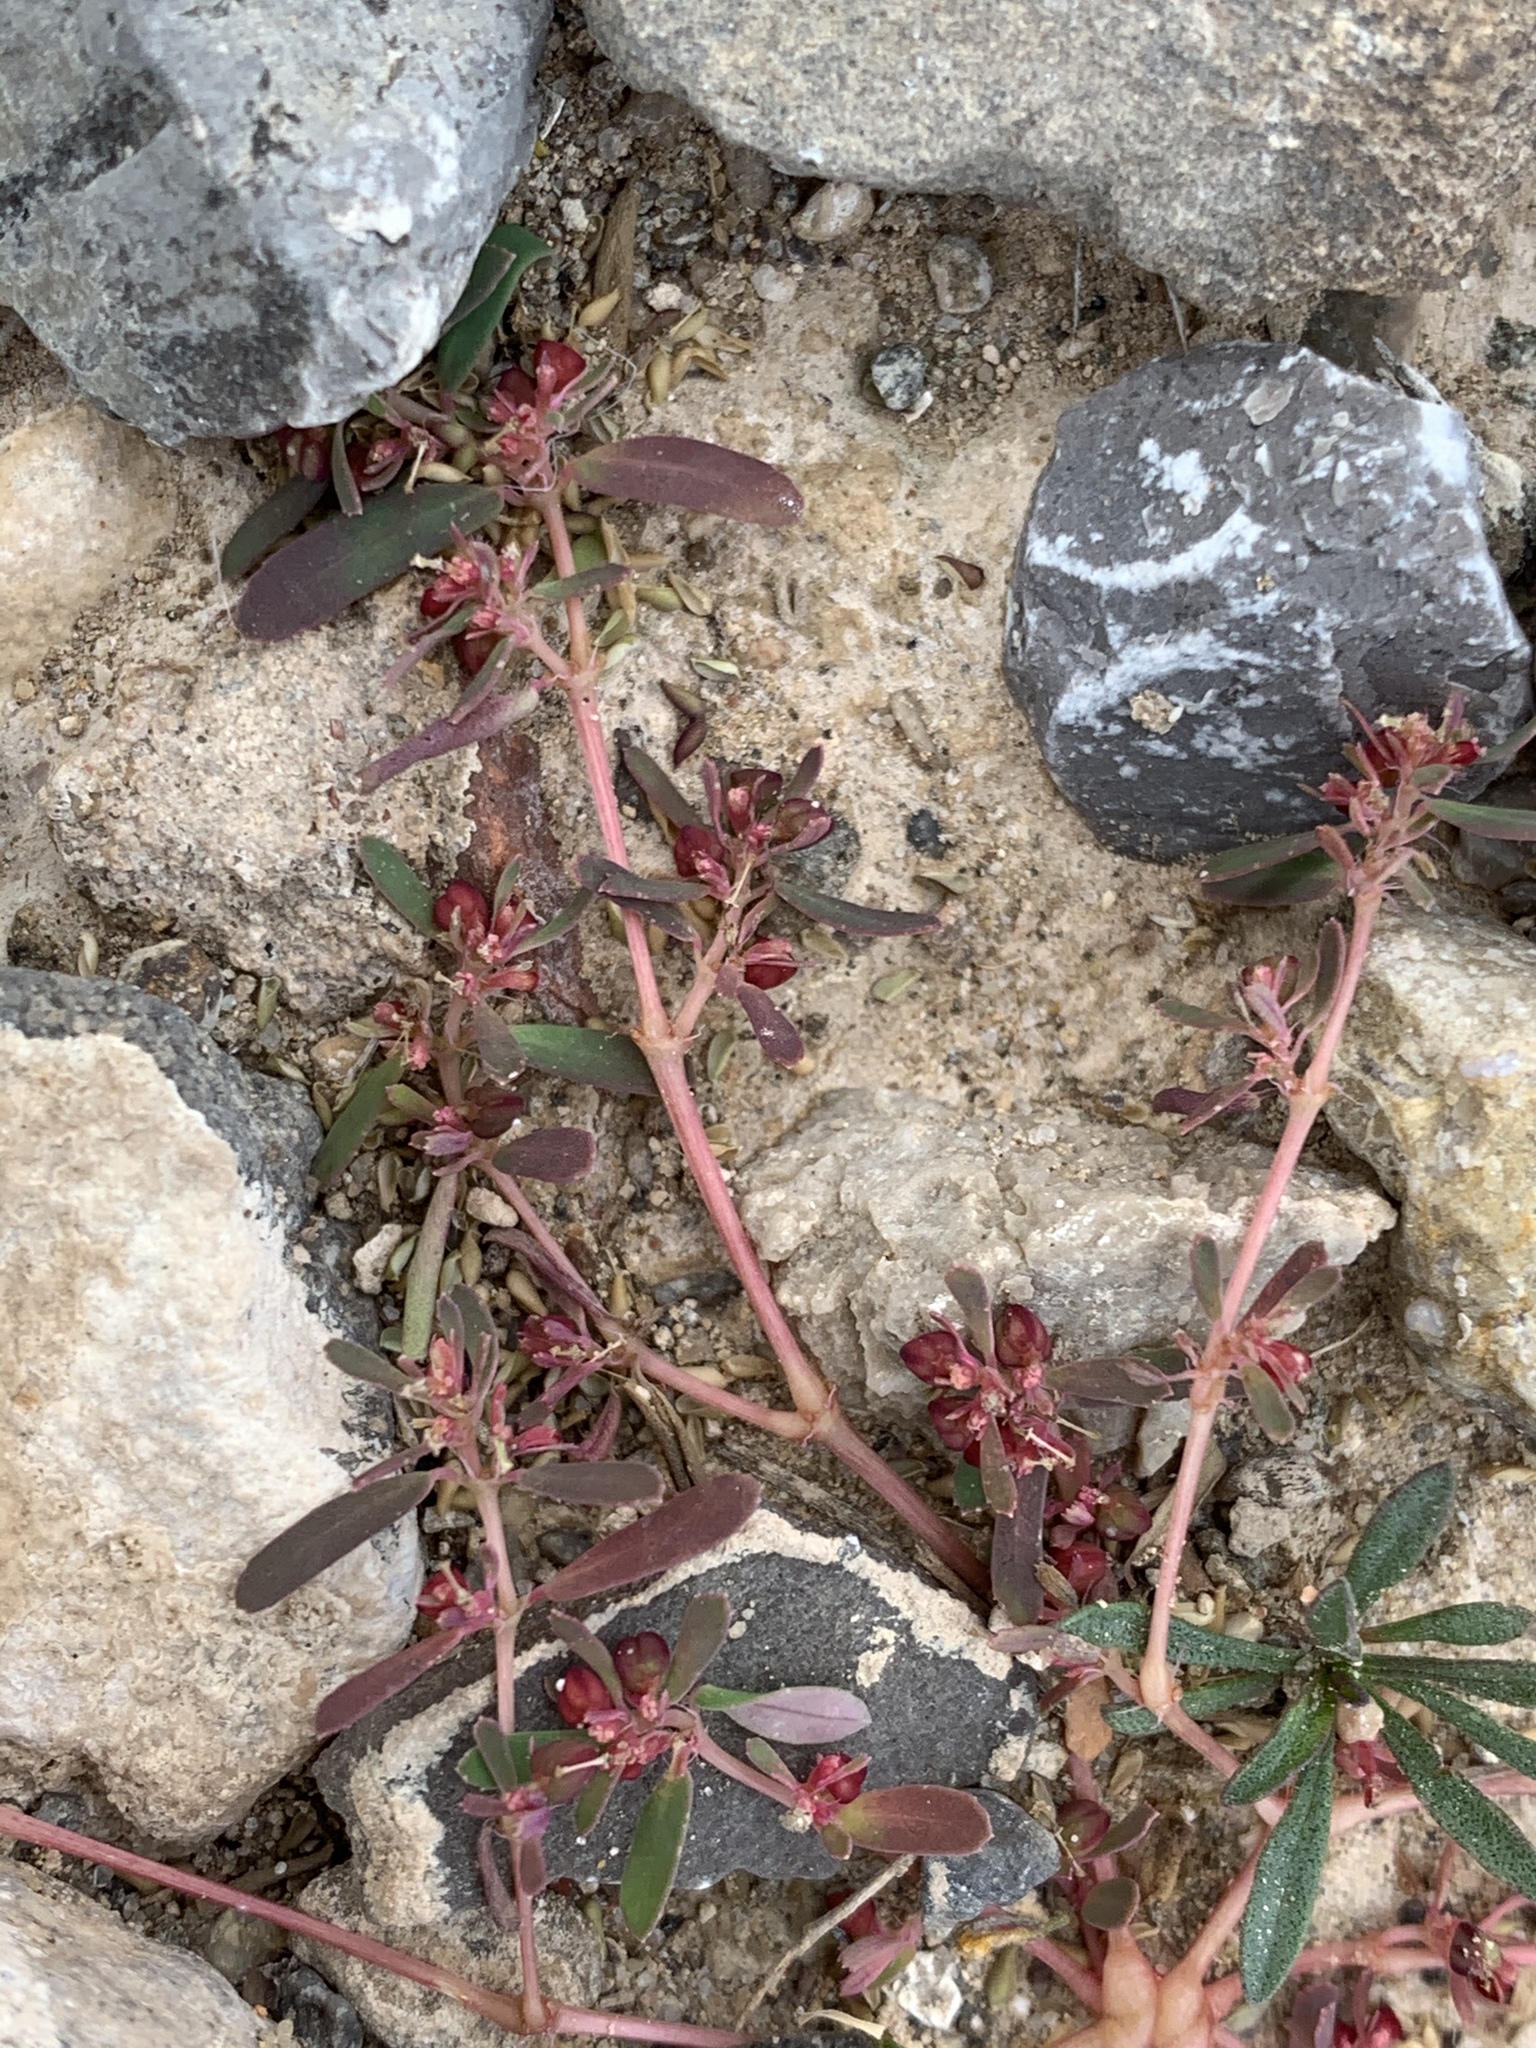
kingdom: Plantae
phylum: Tracheophyta
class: Magnoliopsida
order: Malpighiales
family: Euphorbiaceae
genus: Euphorbia
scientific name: Euphorbia serpillifolia
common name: Thyme-leaf spurge
